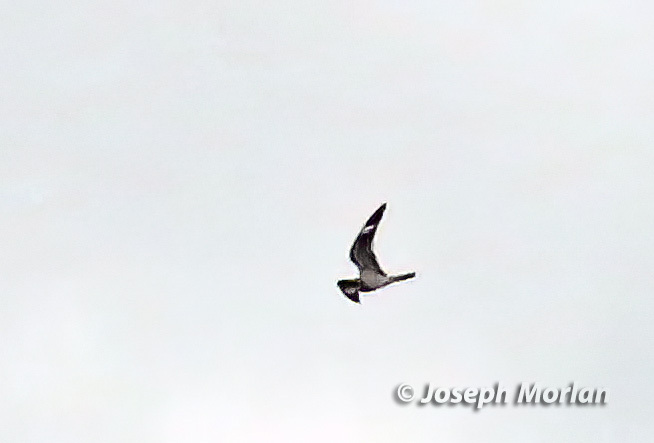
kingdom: Animalia
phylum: Chordata
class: Aves
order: Caprimulgiformes
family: Caprimulgidae
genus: Chordeiles
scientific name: Chordeiles minor
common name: Common nighthawk
